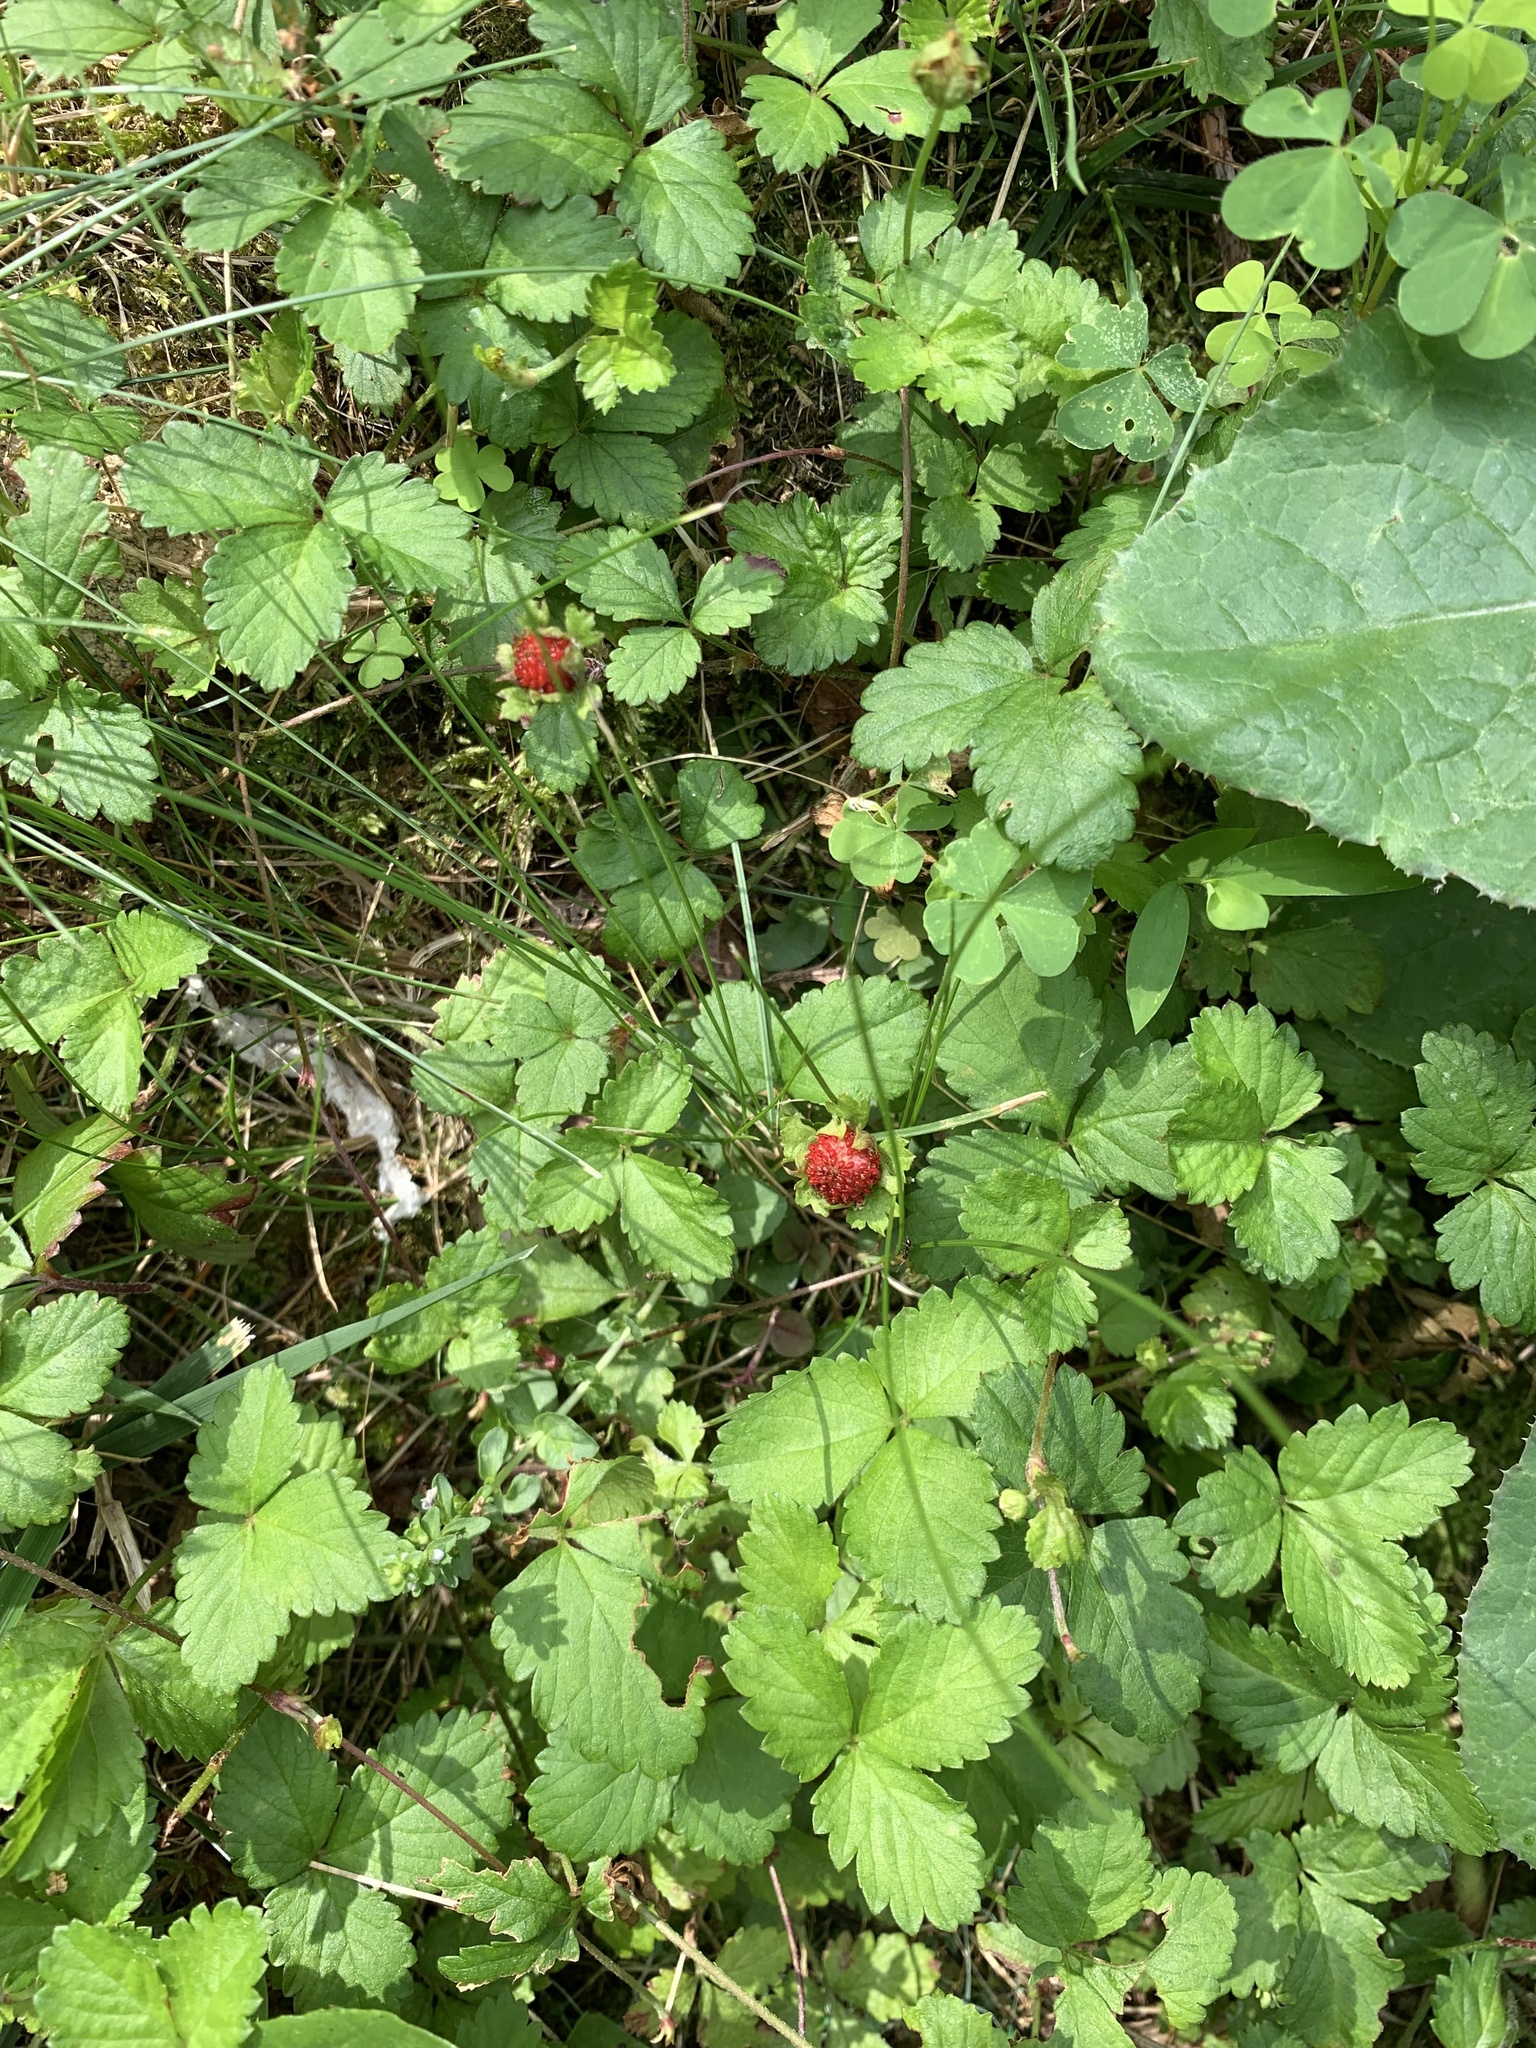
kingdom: Plantae
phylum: Tracheophyta
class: Magnoliopsida
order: Rosales
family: Rosaceae
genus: Potentilla
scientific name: Potentilla indica
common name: Yellow-flowered strawberry
